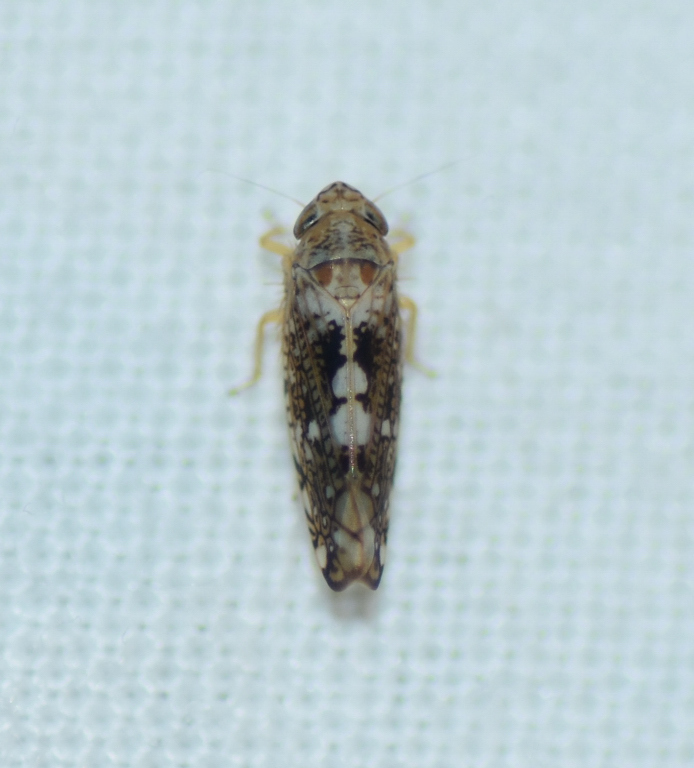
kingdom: Animalia
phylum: Arthropoda
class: Insecta
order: Hemiptera
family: Cicadellidae
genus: Prescottia
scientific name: Prescottia lobata
